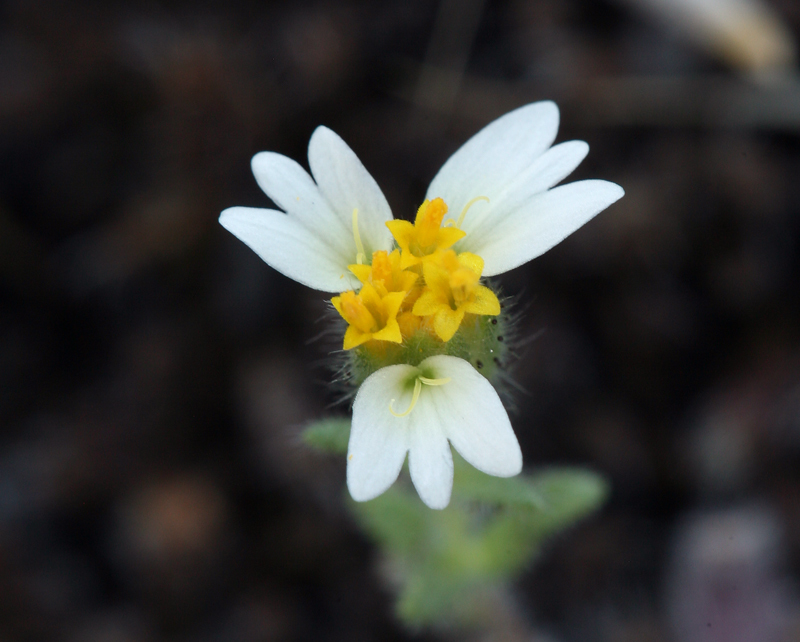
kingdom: Plantae
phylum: Tracheophyta
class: Magnoliopsida
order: Asterales
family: Asteraceae
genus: Layia
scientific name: Layia glandulosa
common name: White layia
